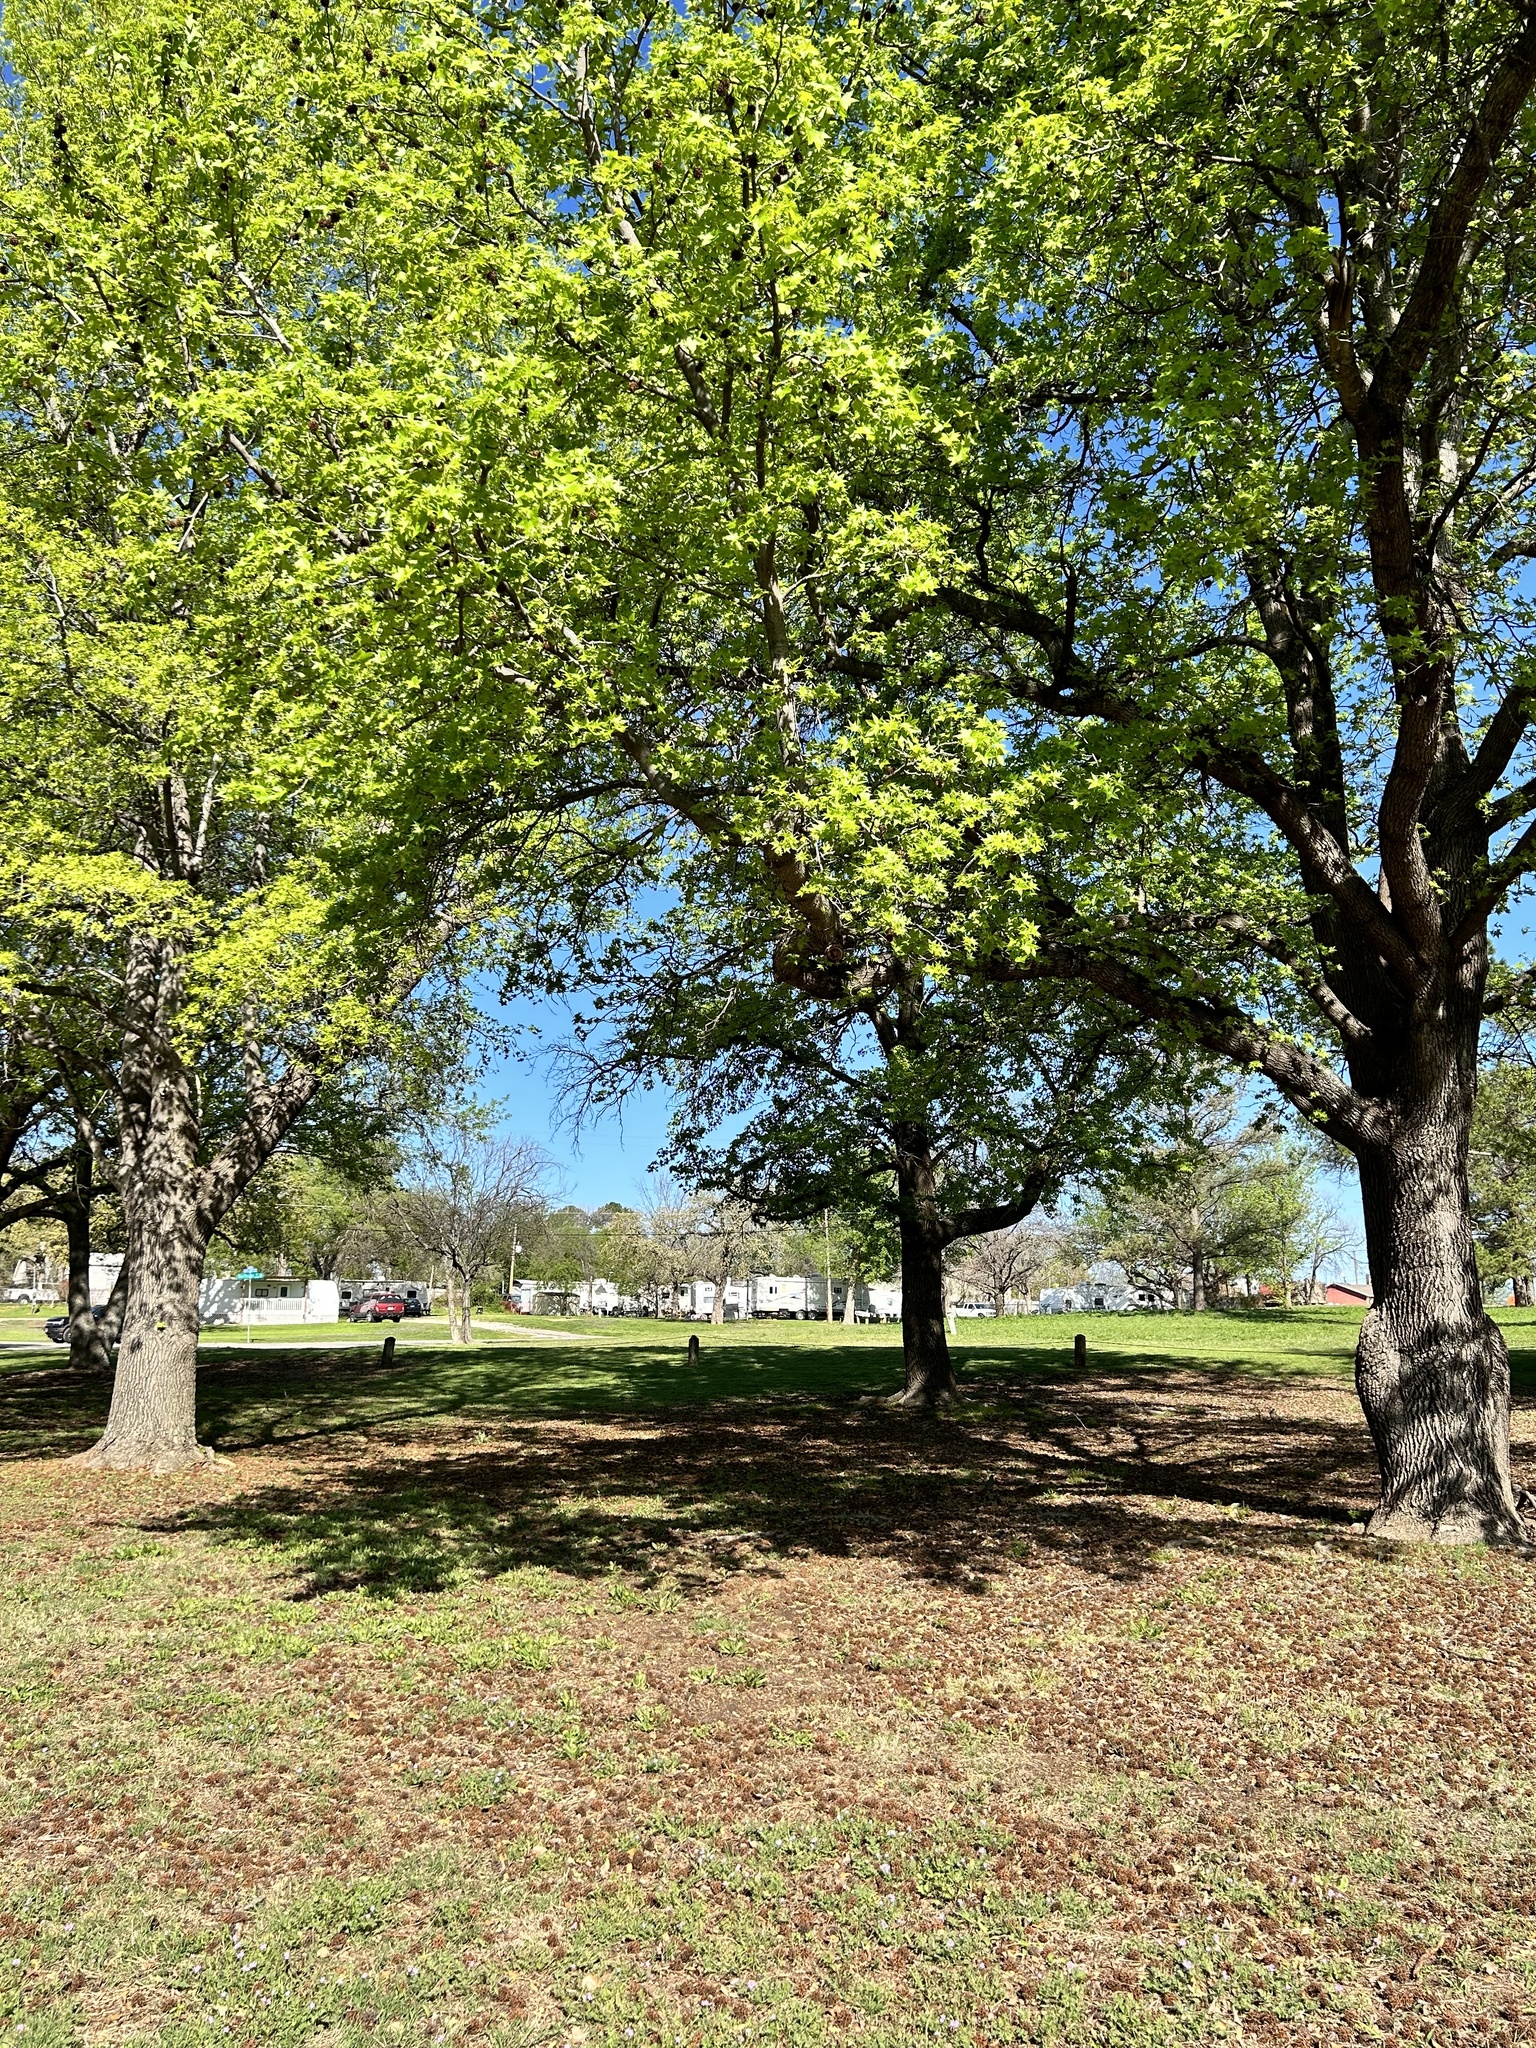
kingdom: Plantae
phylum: Tracheophyta
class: Magnoliopsida
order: Saxifragales
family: Altingiaceae
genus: Liquidambar
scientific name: Liquidambar styraciflua
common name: Sweet gum
